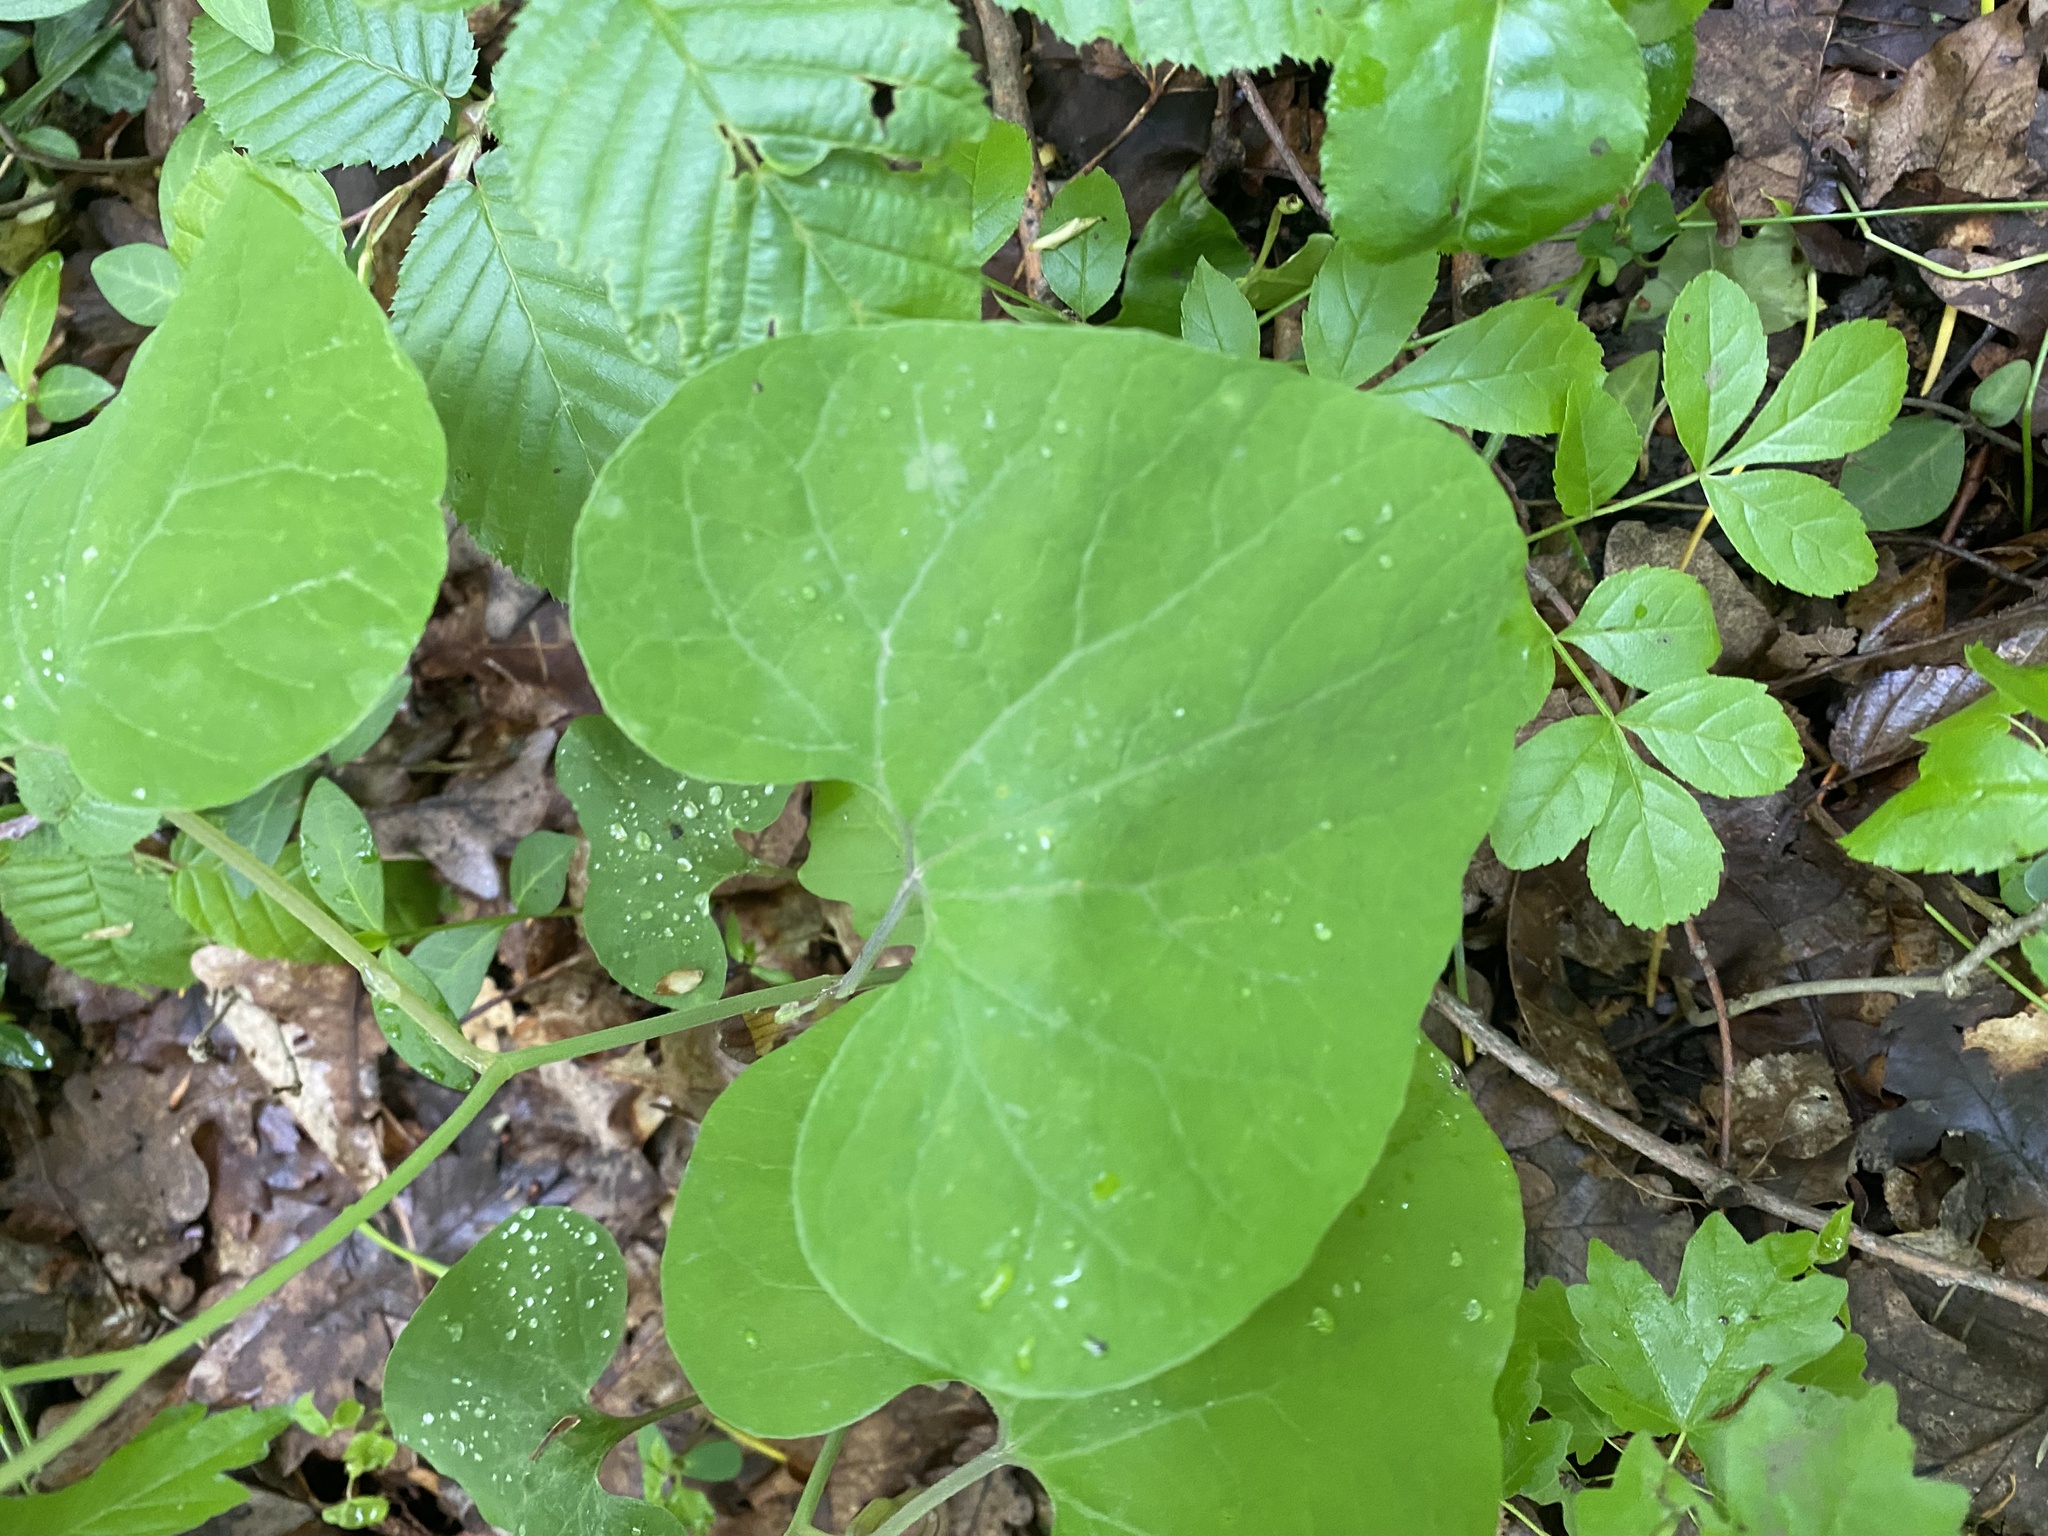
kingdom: Plantae
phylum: Tracheophyta
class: Magnoliopsida
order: Piperales
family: Aristolochiaceae
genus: Aristolochia
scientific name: Aristolochia steupii
